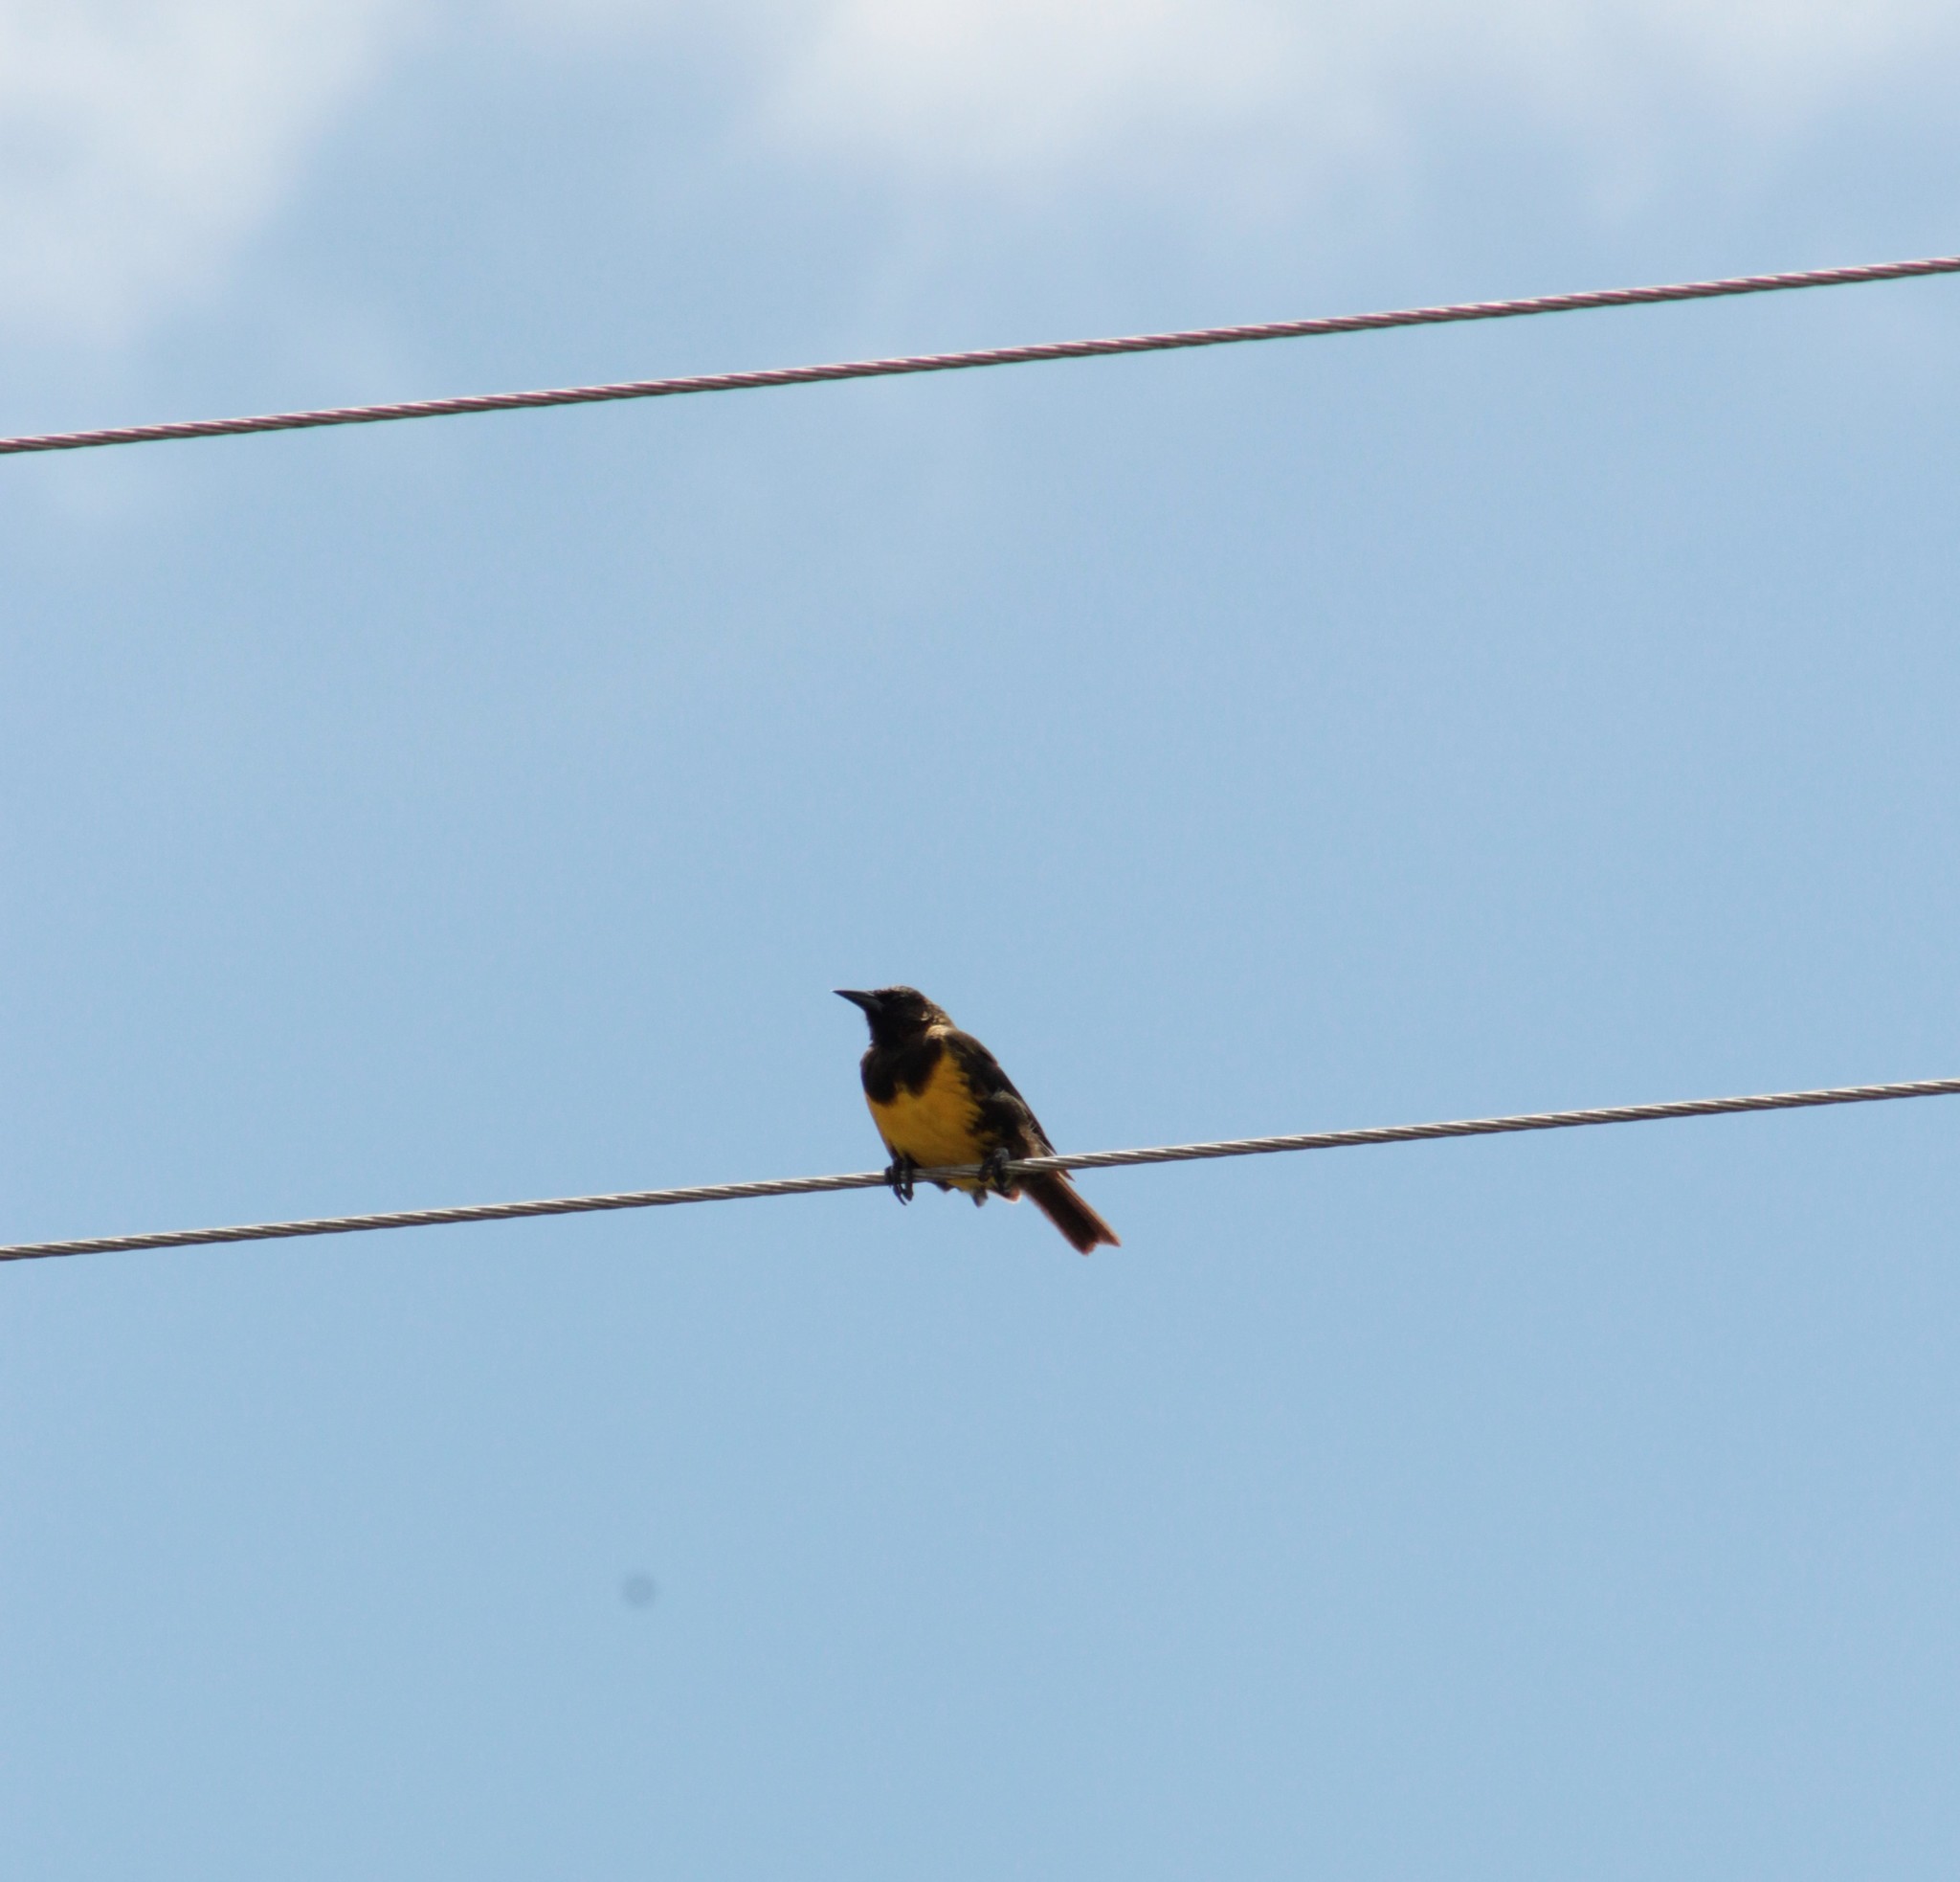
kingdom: Animalia
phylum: Chordata
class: Aves
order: Passeriformes
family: Icteridae
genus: Pseudoleistes
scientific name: Pseudoleistes virescens
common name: Brown-and-yellow marshbird
